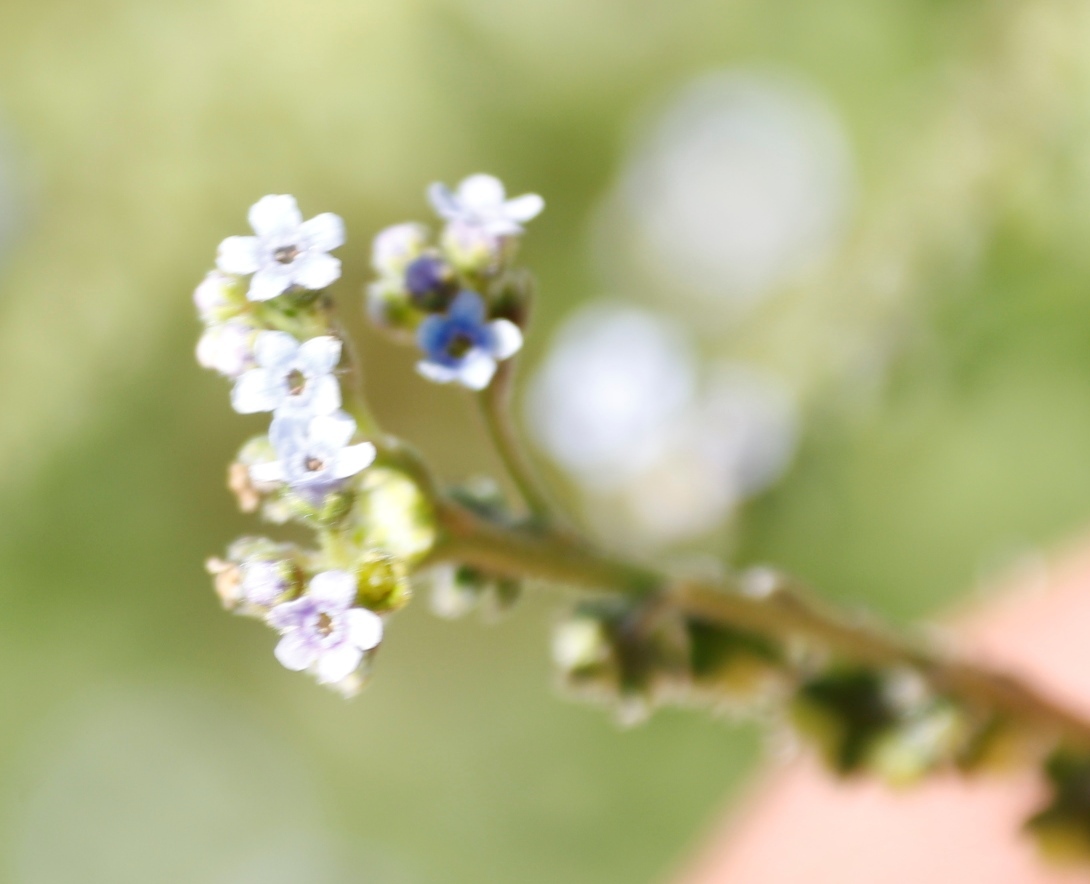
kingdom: Plantae
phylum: Tracheophyta
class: Magnoliopsida
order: Boraginales
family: Boraginaceae
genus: Cynoglossum
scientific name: Cynoglossum austroafricanum
